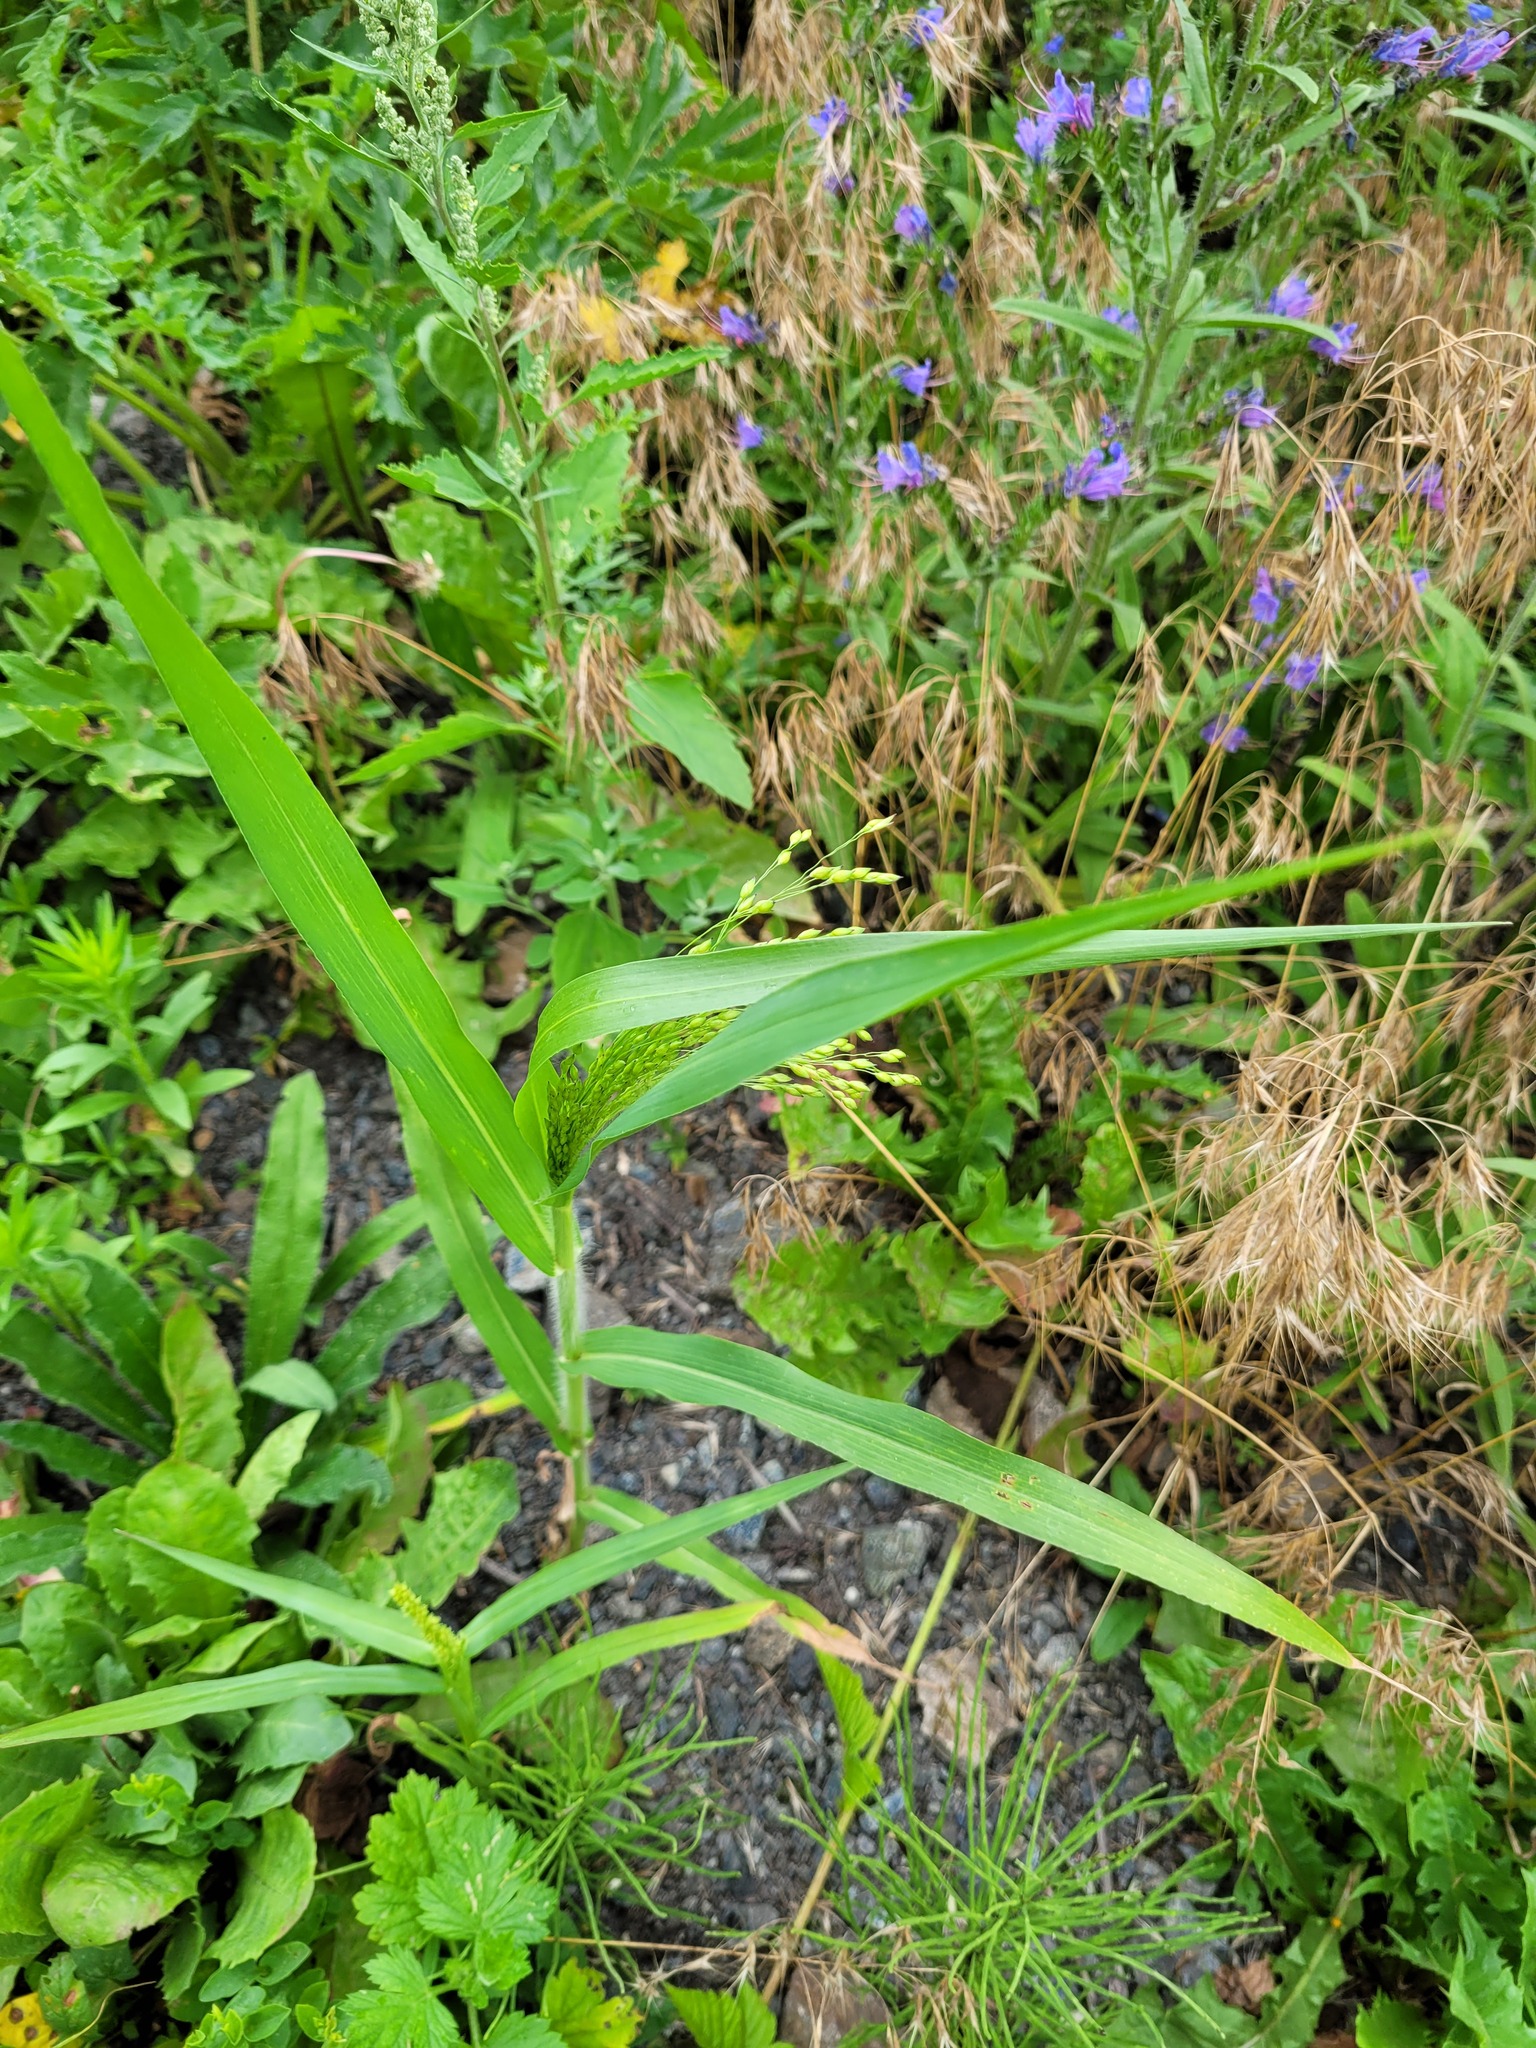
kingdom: Plantae
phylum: Tracheophyta
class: Liliopsida
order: Poales
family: Poaceae
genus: Panicum
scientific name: Panicum miliaceum
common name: Common millet
